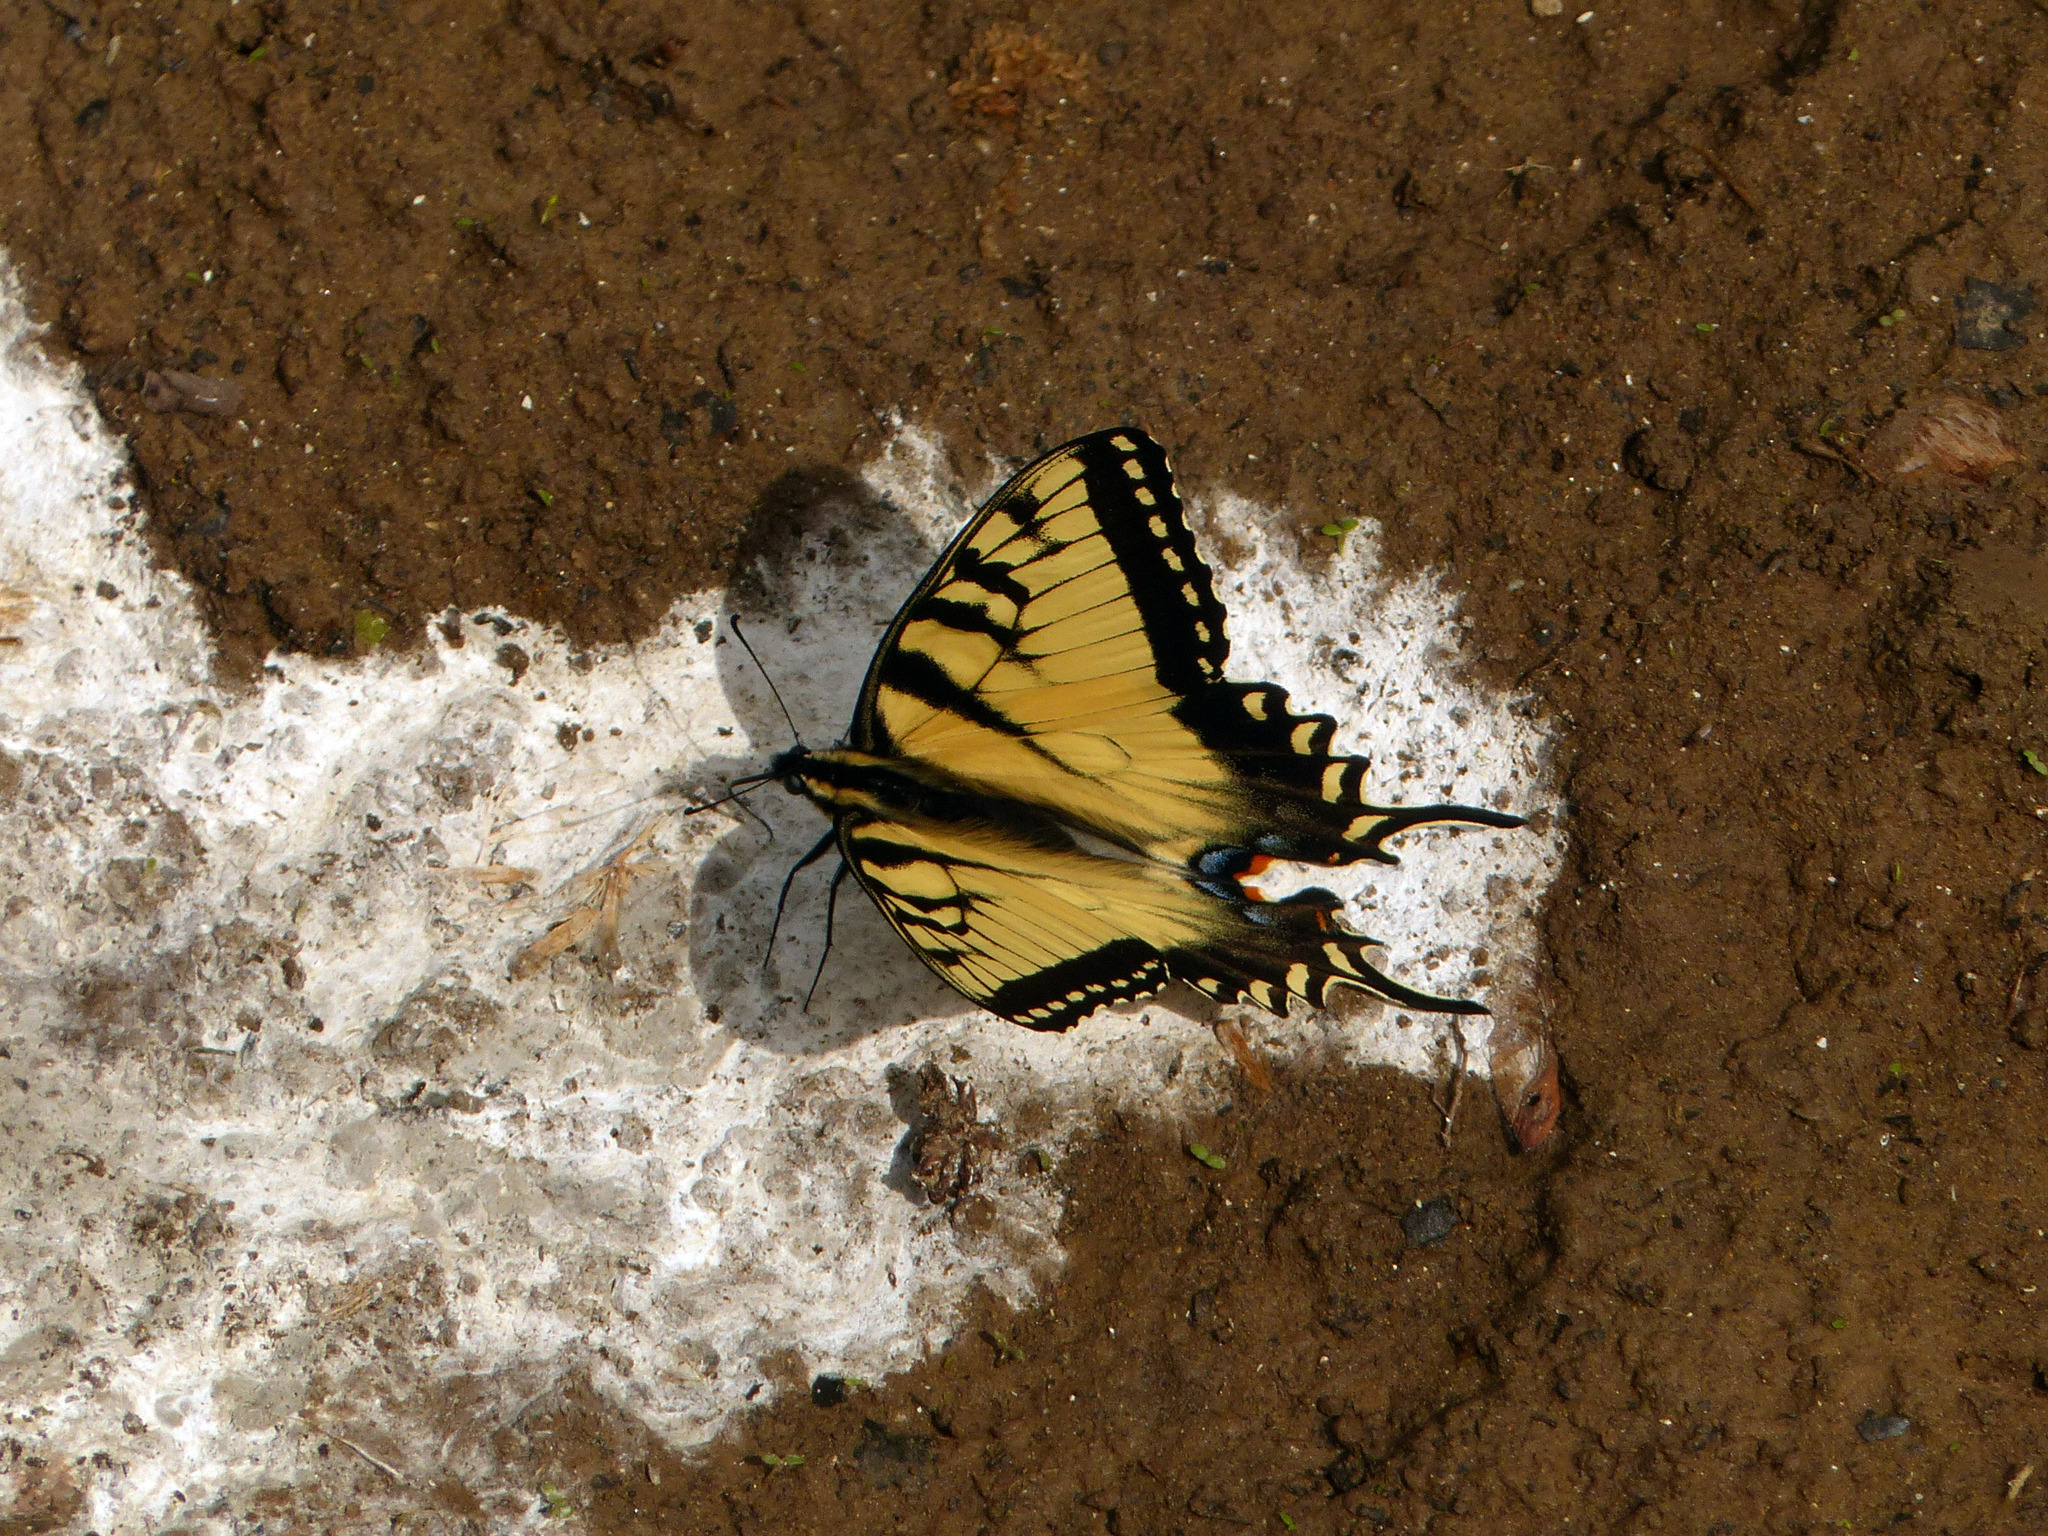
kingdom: Animalia
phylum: Arthropoda
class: Insecta
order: Lepidoptera
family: Papilionidae
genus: Papilio
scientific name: Papilio glaucus
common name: Tiger swallowtail
